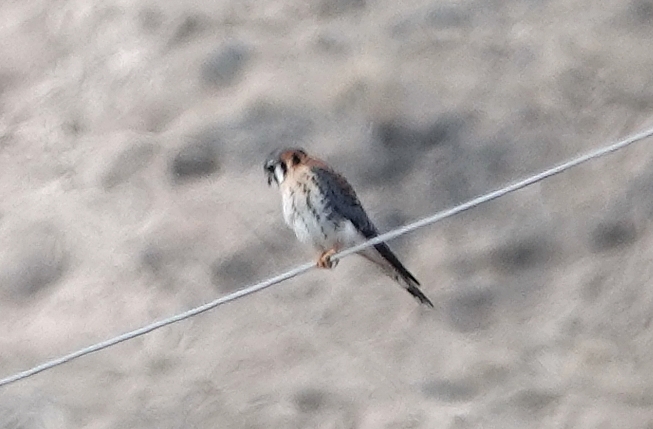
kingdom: Animalia
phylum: Chordata
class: Aves
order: Falconiformes
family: Falconidae
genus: Falco
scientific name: Falco sparverius
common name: American kestrel
